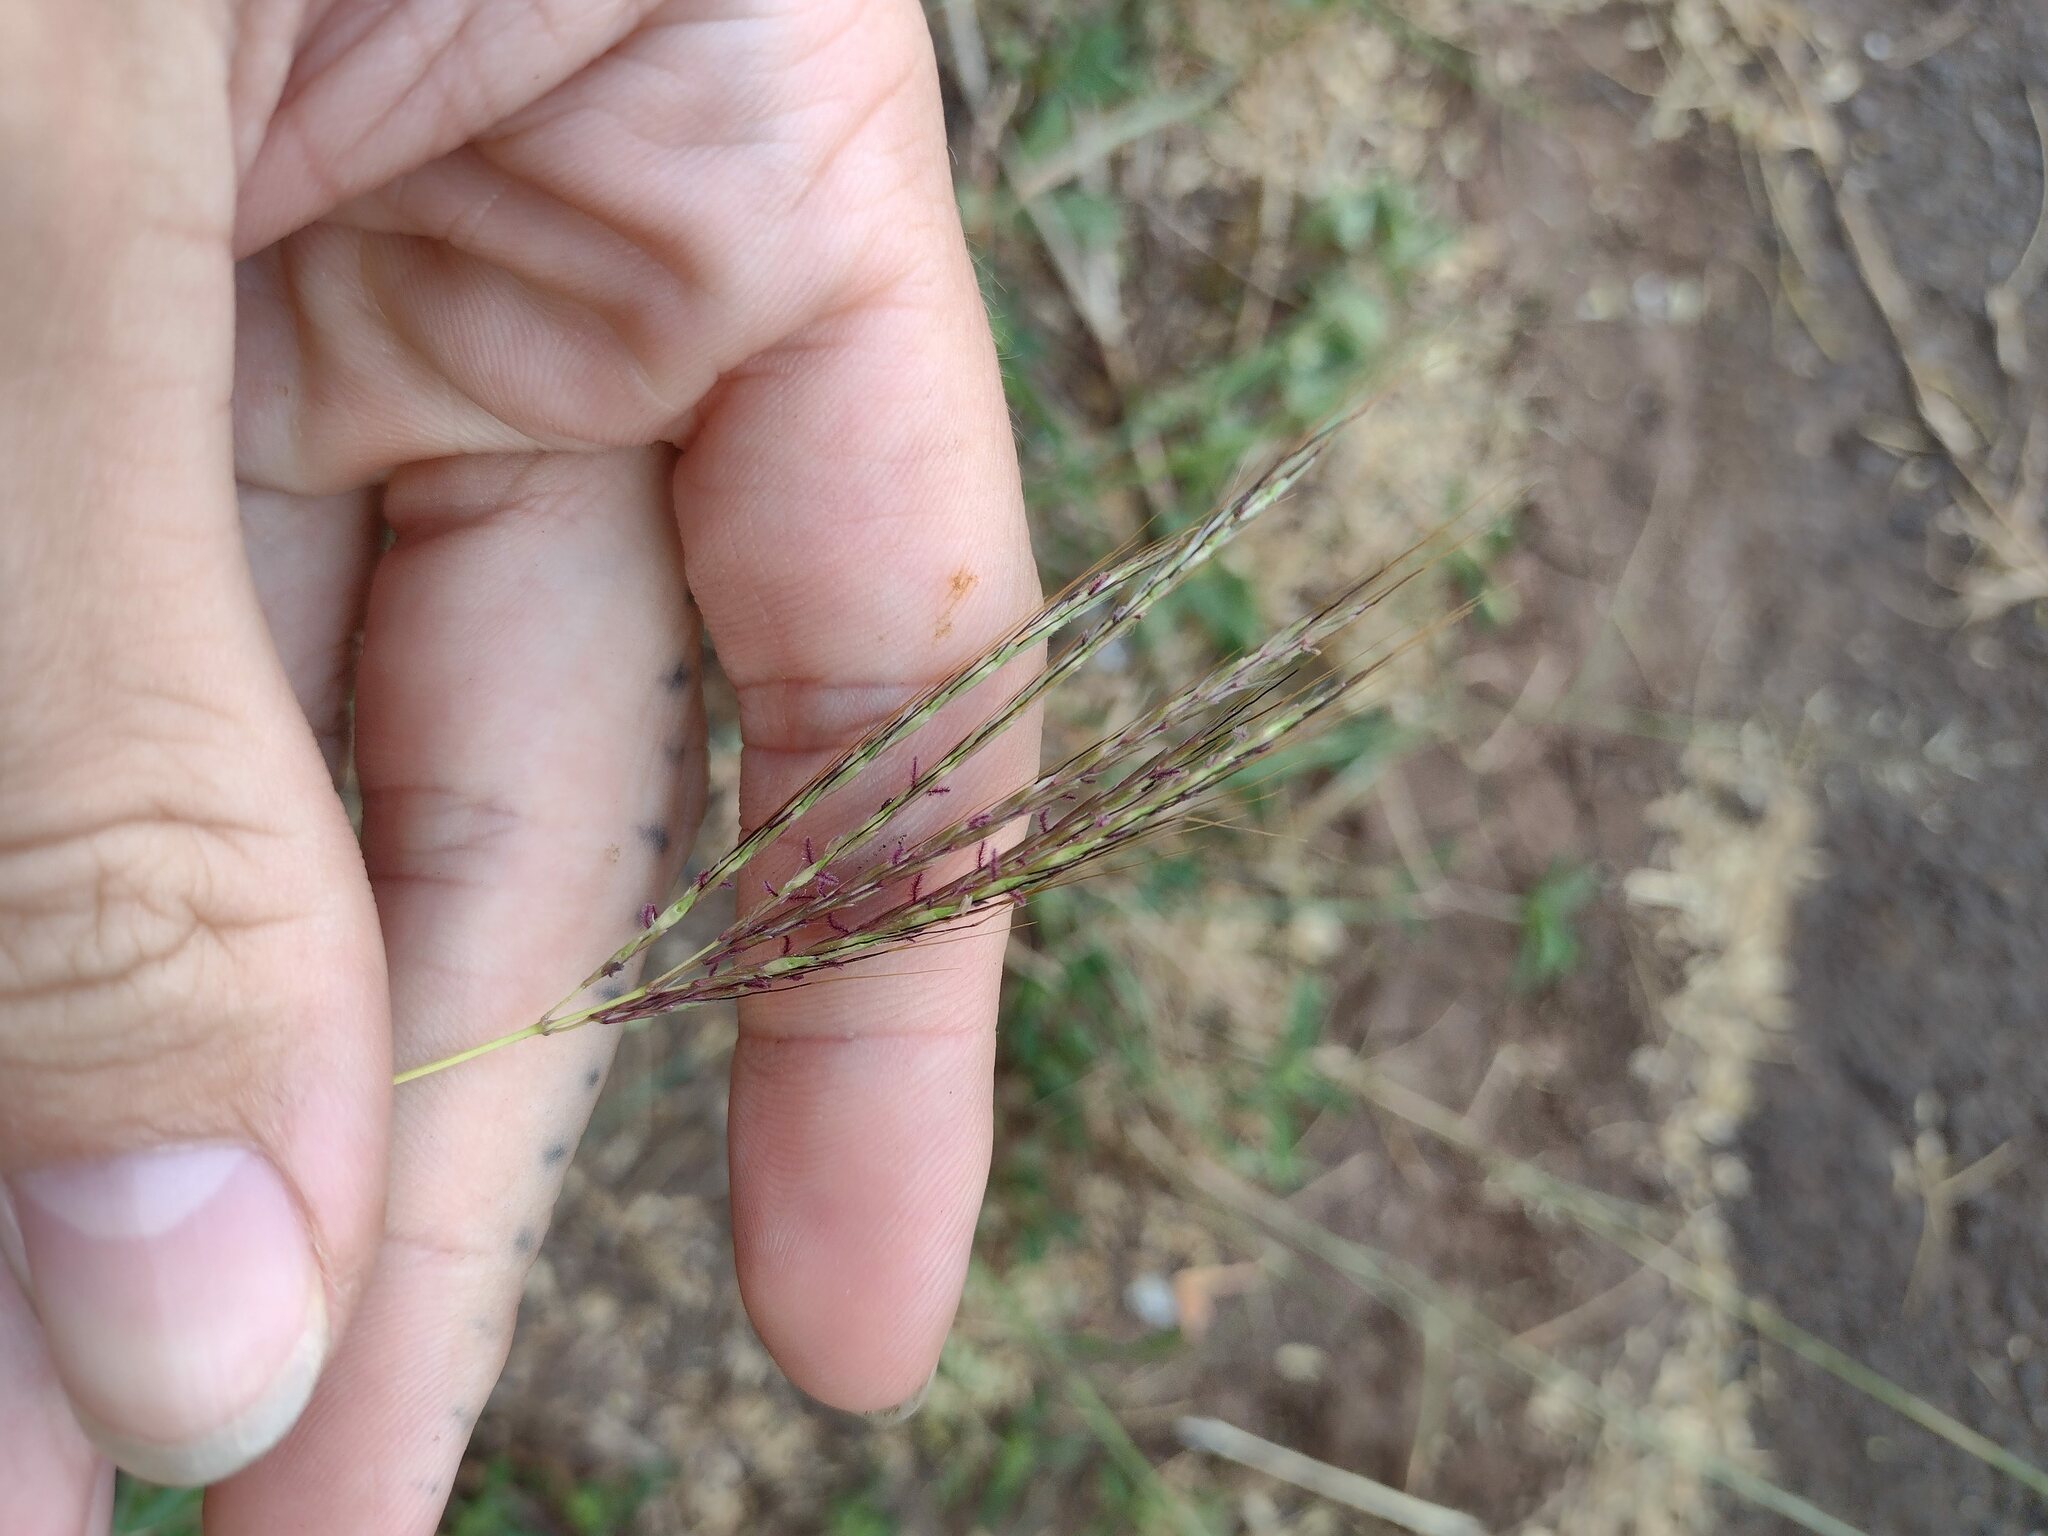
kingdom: Plantae
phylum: Tracheophyta
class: Liliopsida
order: Poales
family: Poaceae
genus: Bothriochloa
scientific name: Bothriochloa pertusa
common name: Pitted beardgrass
